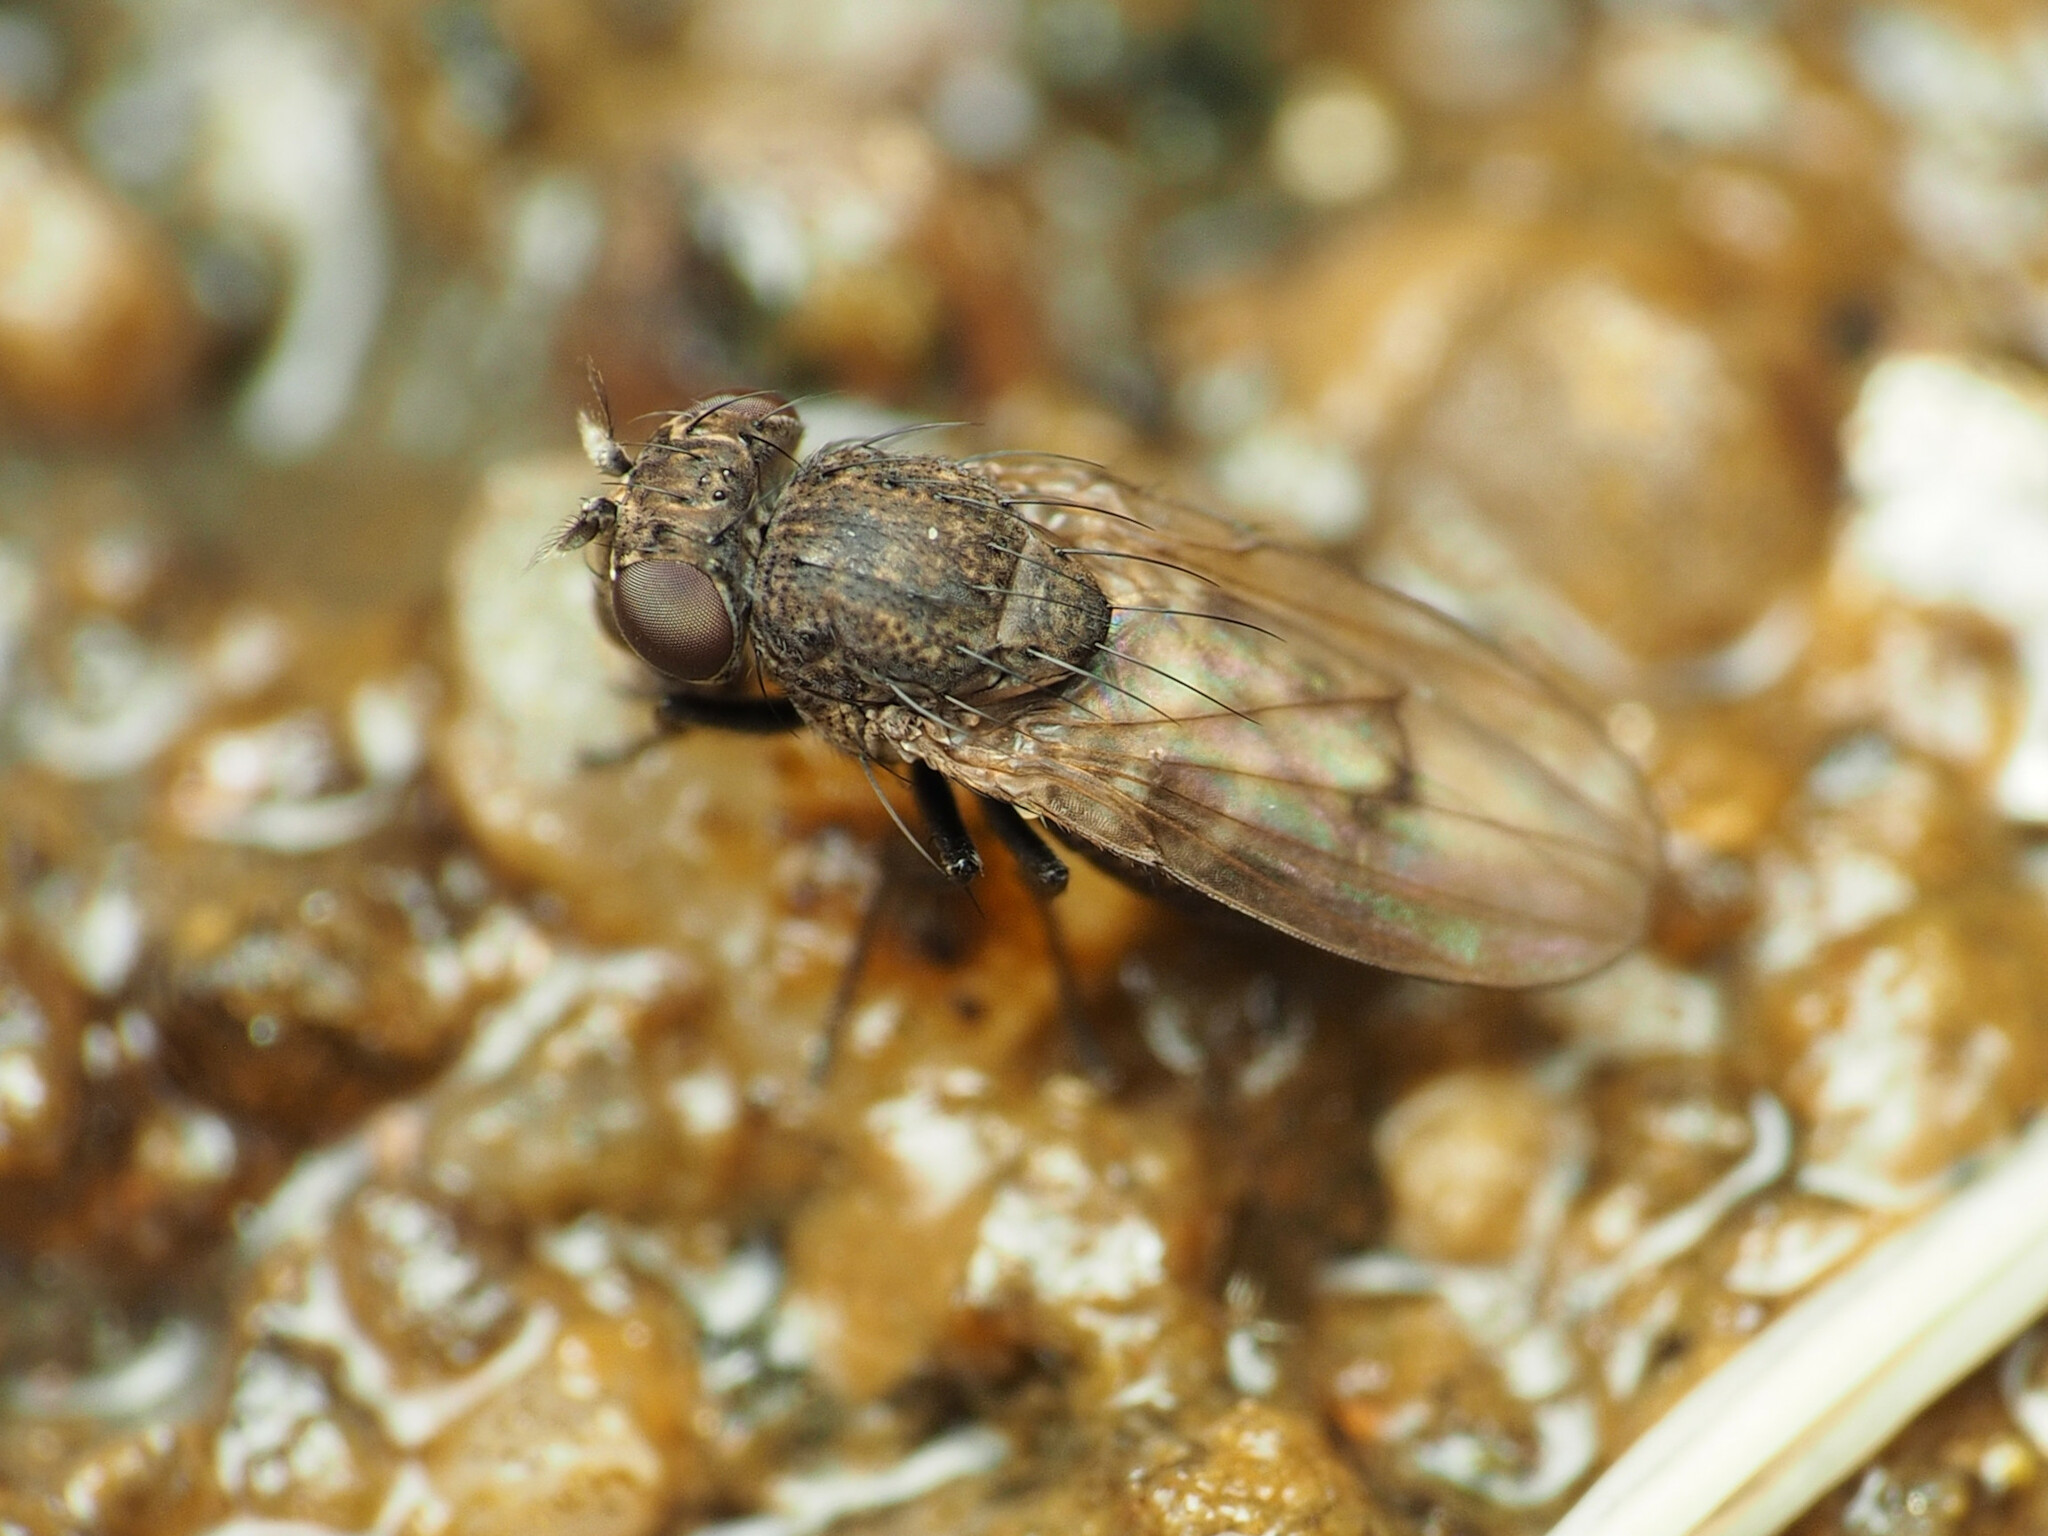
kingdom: Animalia
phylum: Arthropoda
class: Insecta
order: Diptera
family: Ephydridae
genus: Paralimna
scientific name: Paralimna punctipennis
